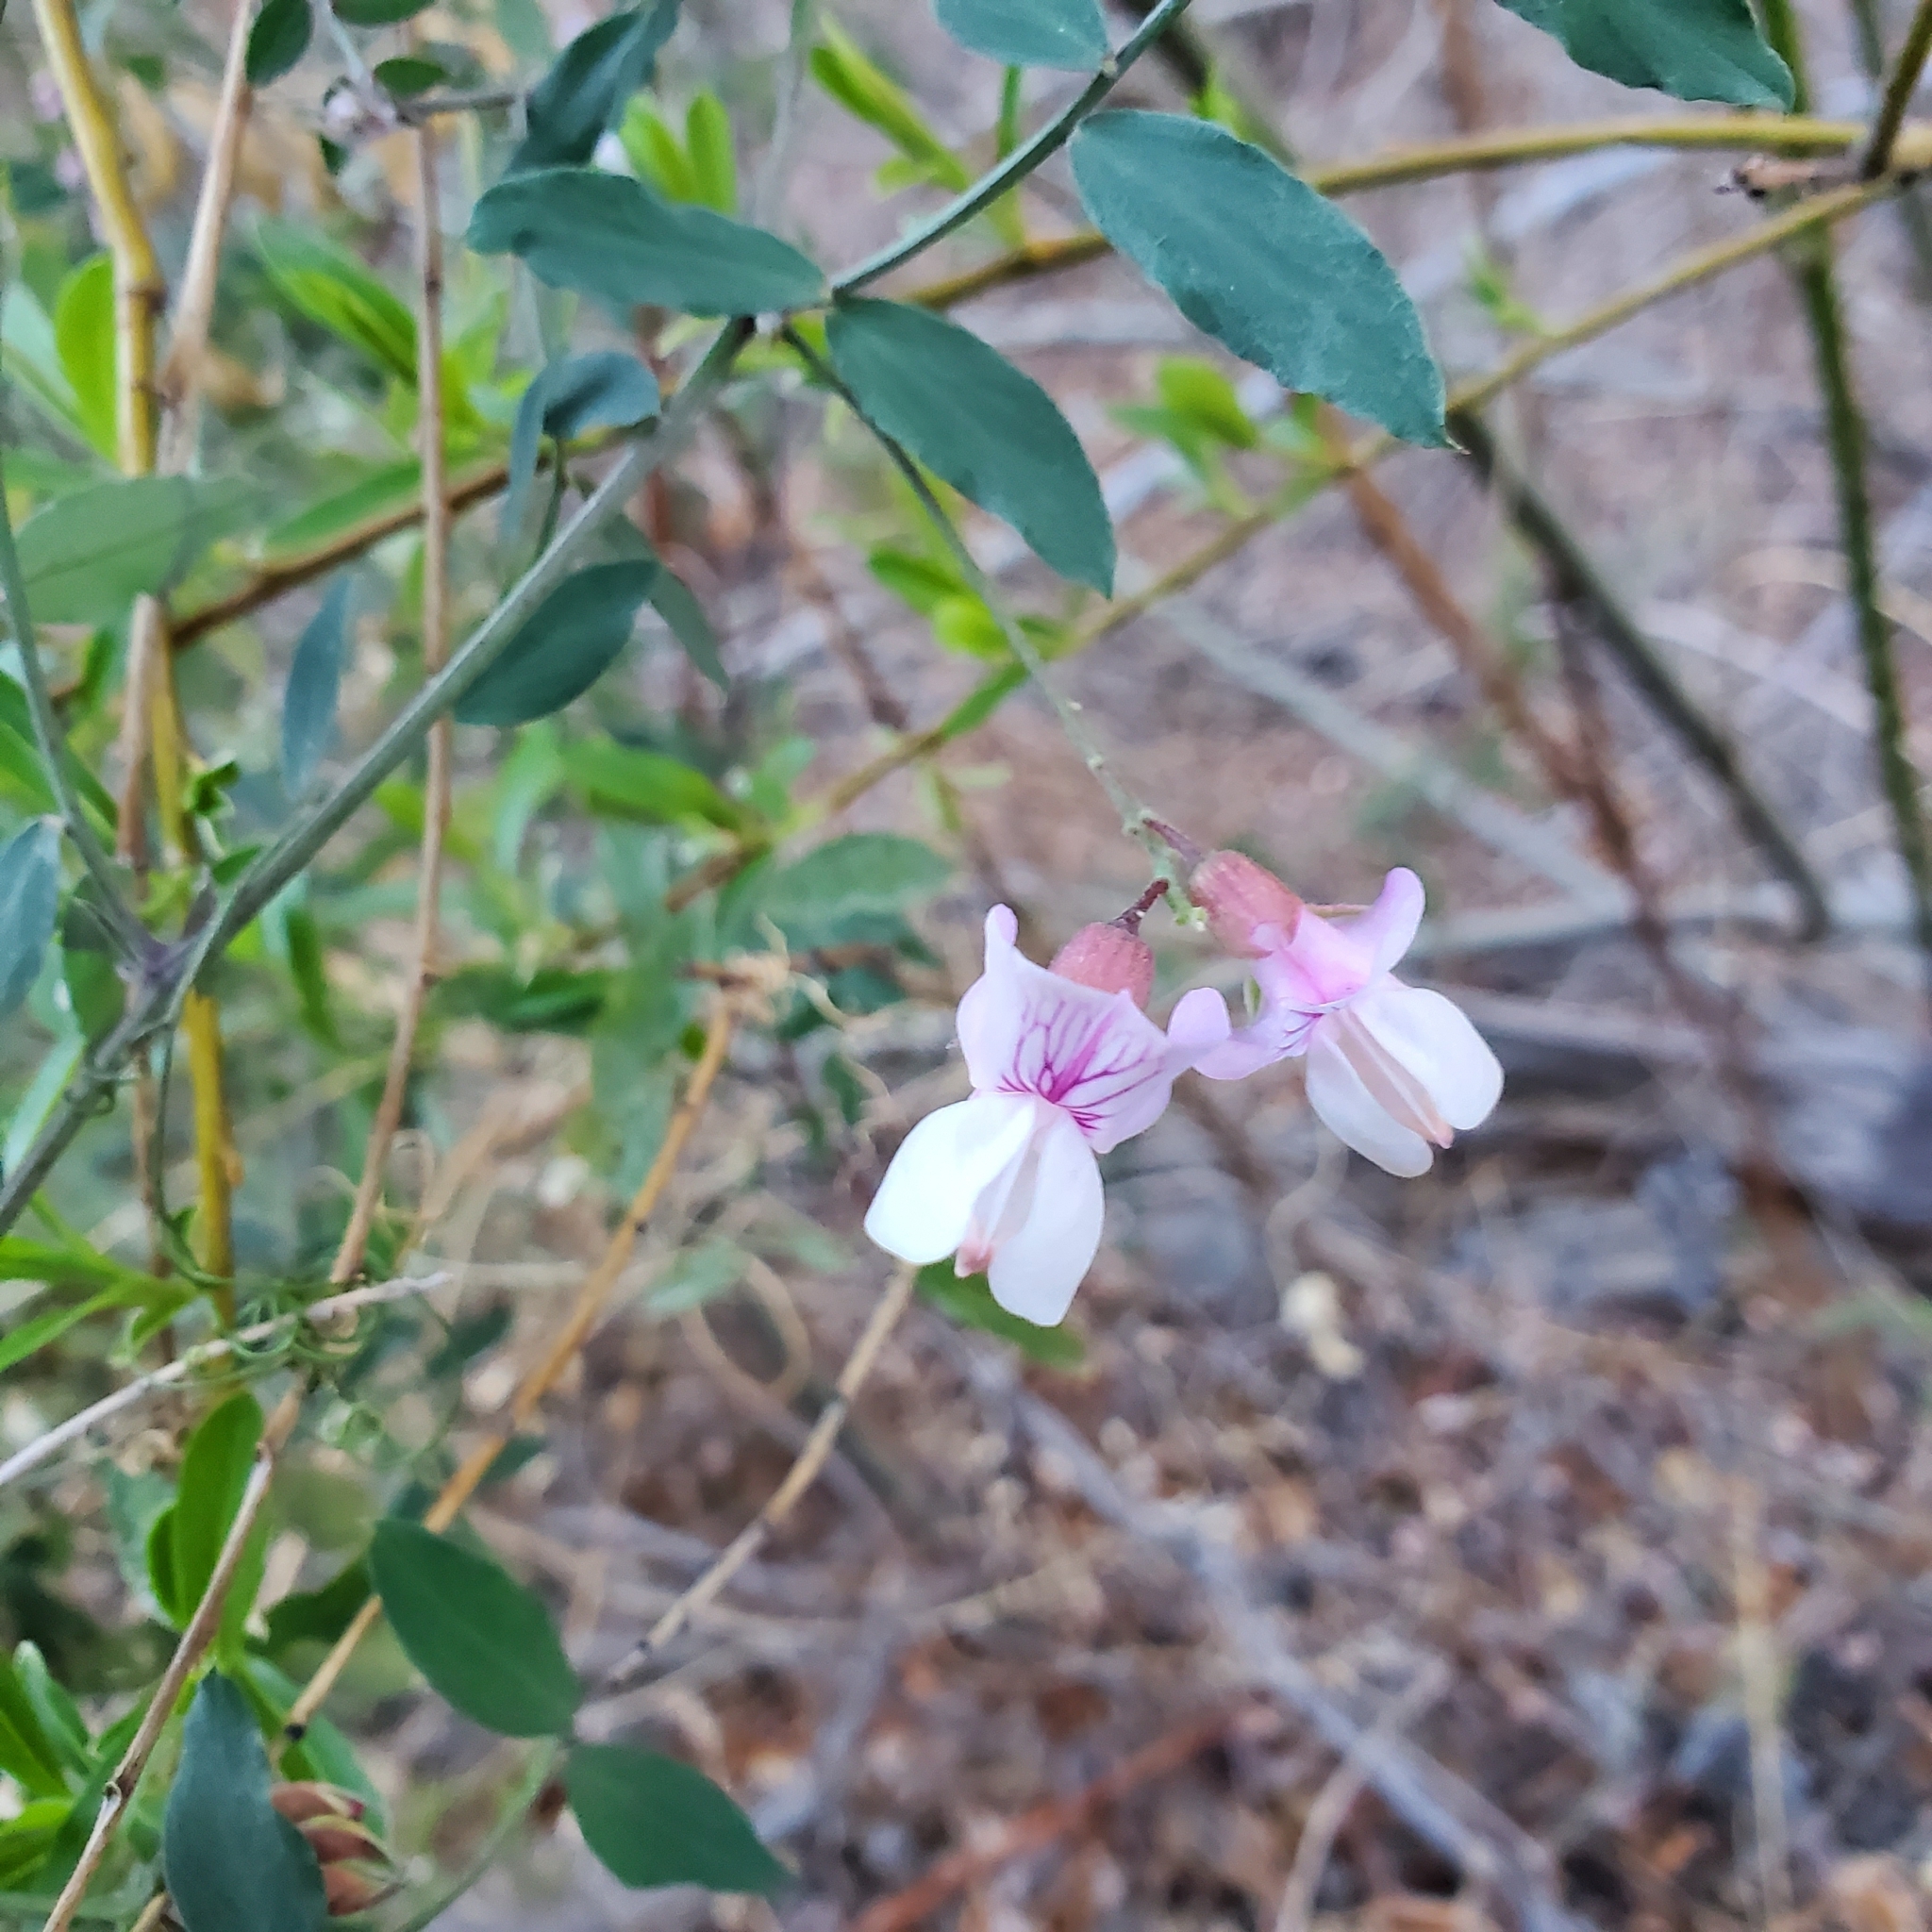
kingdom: Plantae
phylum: Tracheophyta
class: Magnoliopsida
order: Fabales
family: Fabaceae
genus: Lathyrus
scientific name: Lathyrus vestitus
